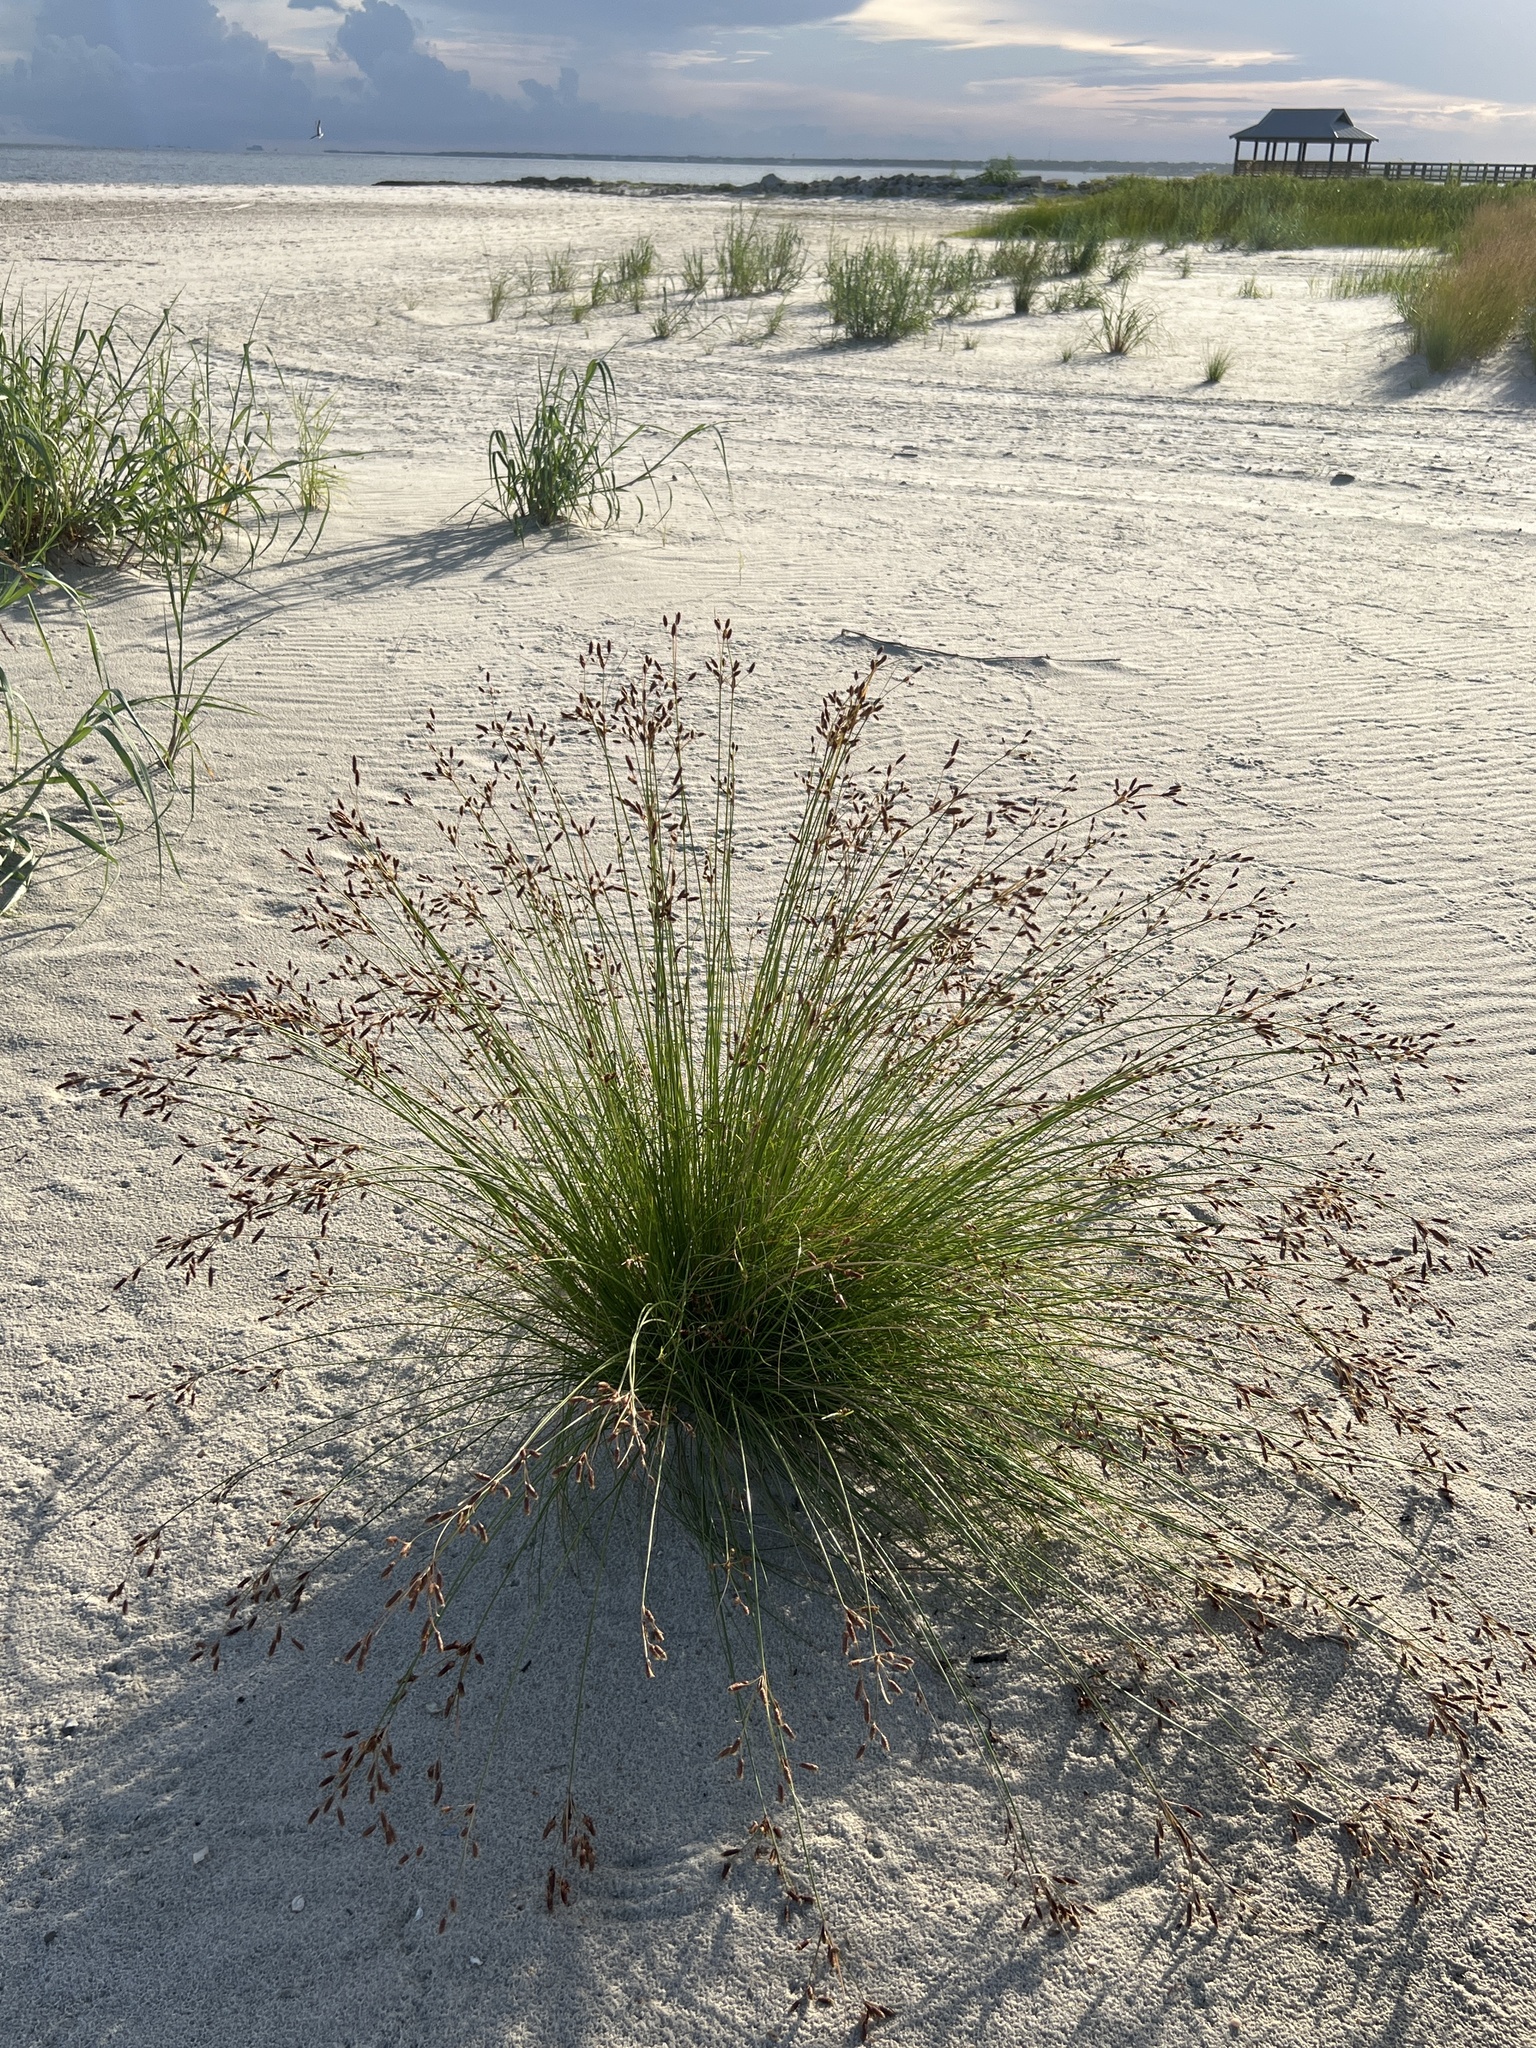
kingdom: Plantae
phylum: Tracheophyta
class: Liliopsida
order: Poales
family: Cyperaceae
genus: Fimbristylis
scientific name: Fimbristylis spadicea
